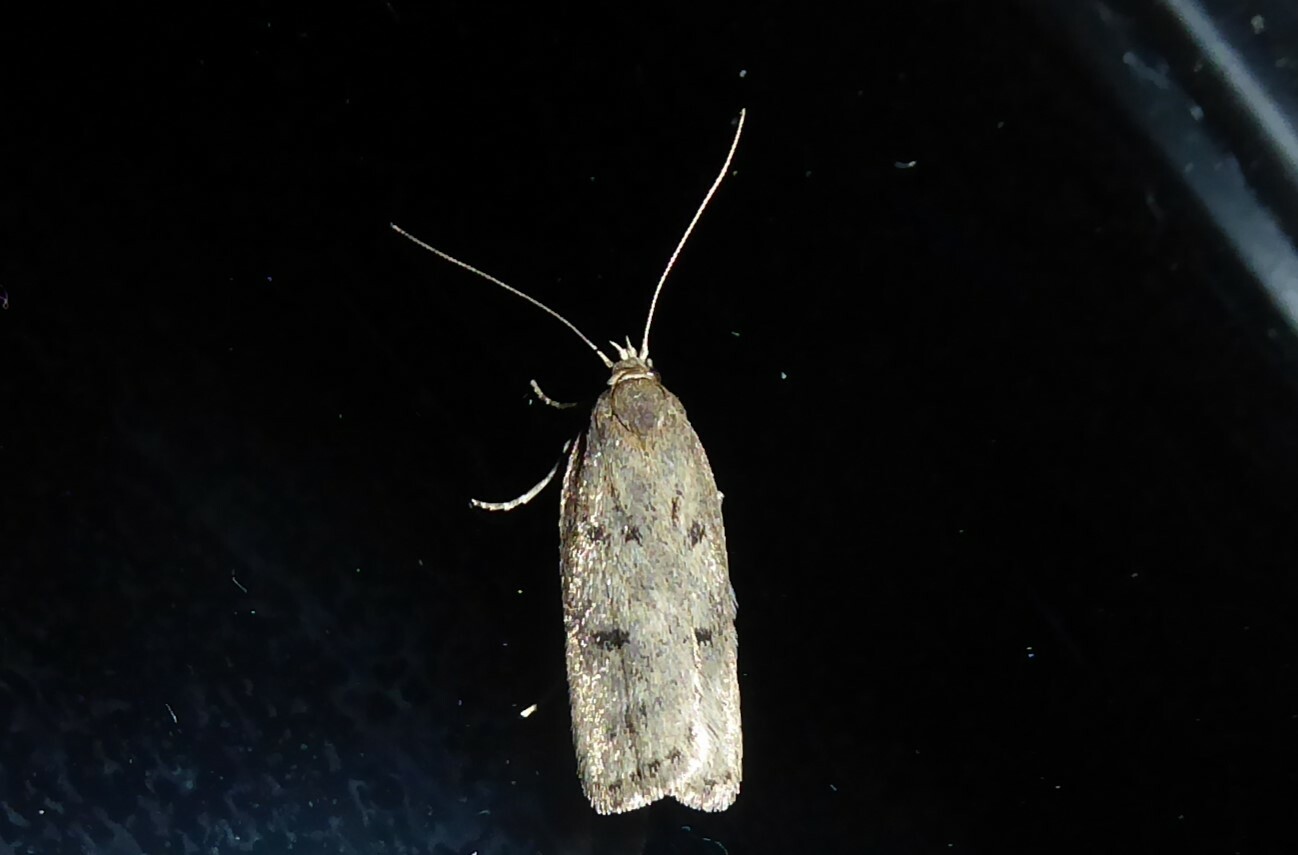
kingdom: Animalia
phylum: Arthropoda
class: Insecta
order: Lepidoptera
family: Depressariidae
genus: Phaeosaces
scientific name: Phaeosaces apocrypta
